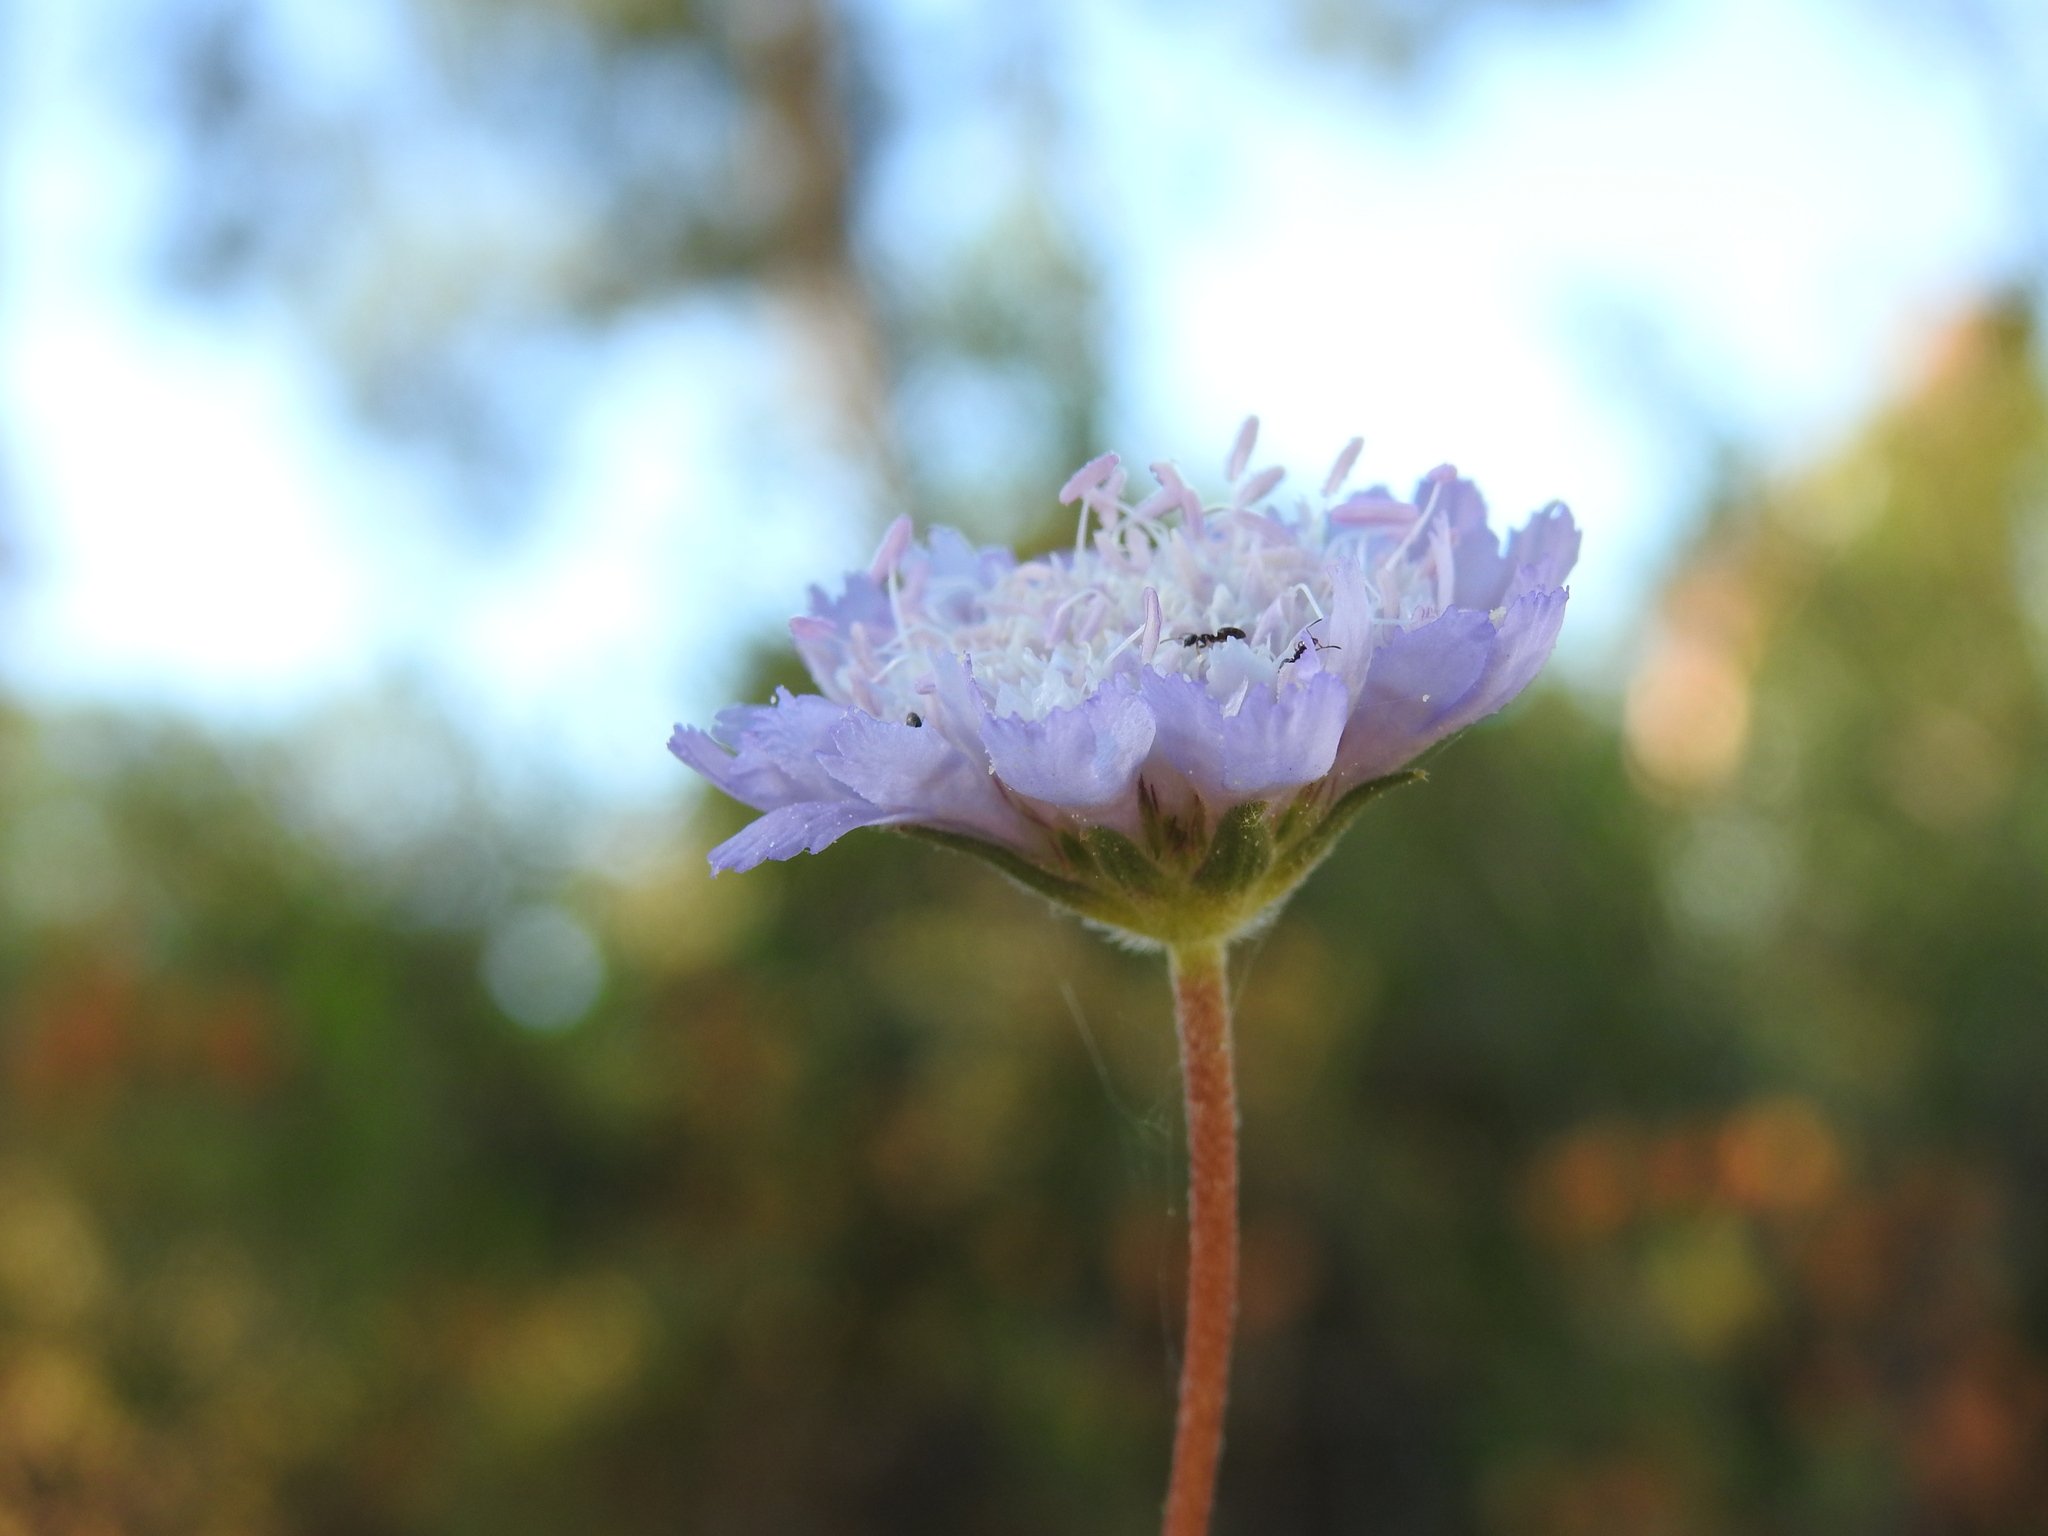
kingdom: Plantae
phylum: Tracheophyta
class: Magnoliopsida
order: Dipsacales
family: Caprifoliaceae
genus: Pycnocomon
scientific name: Pycnocomon intermedium
